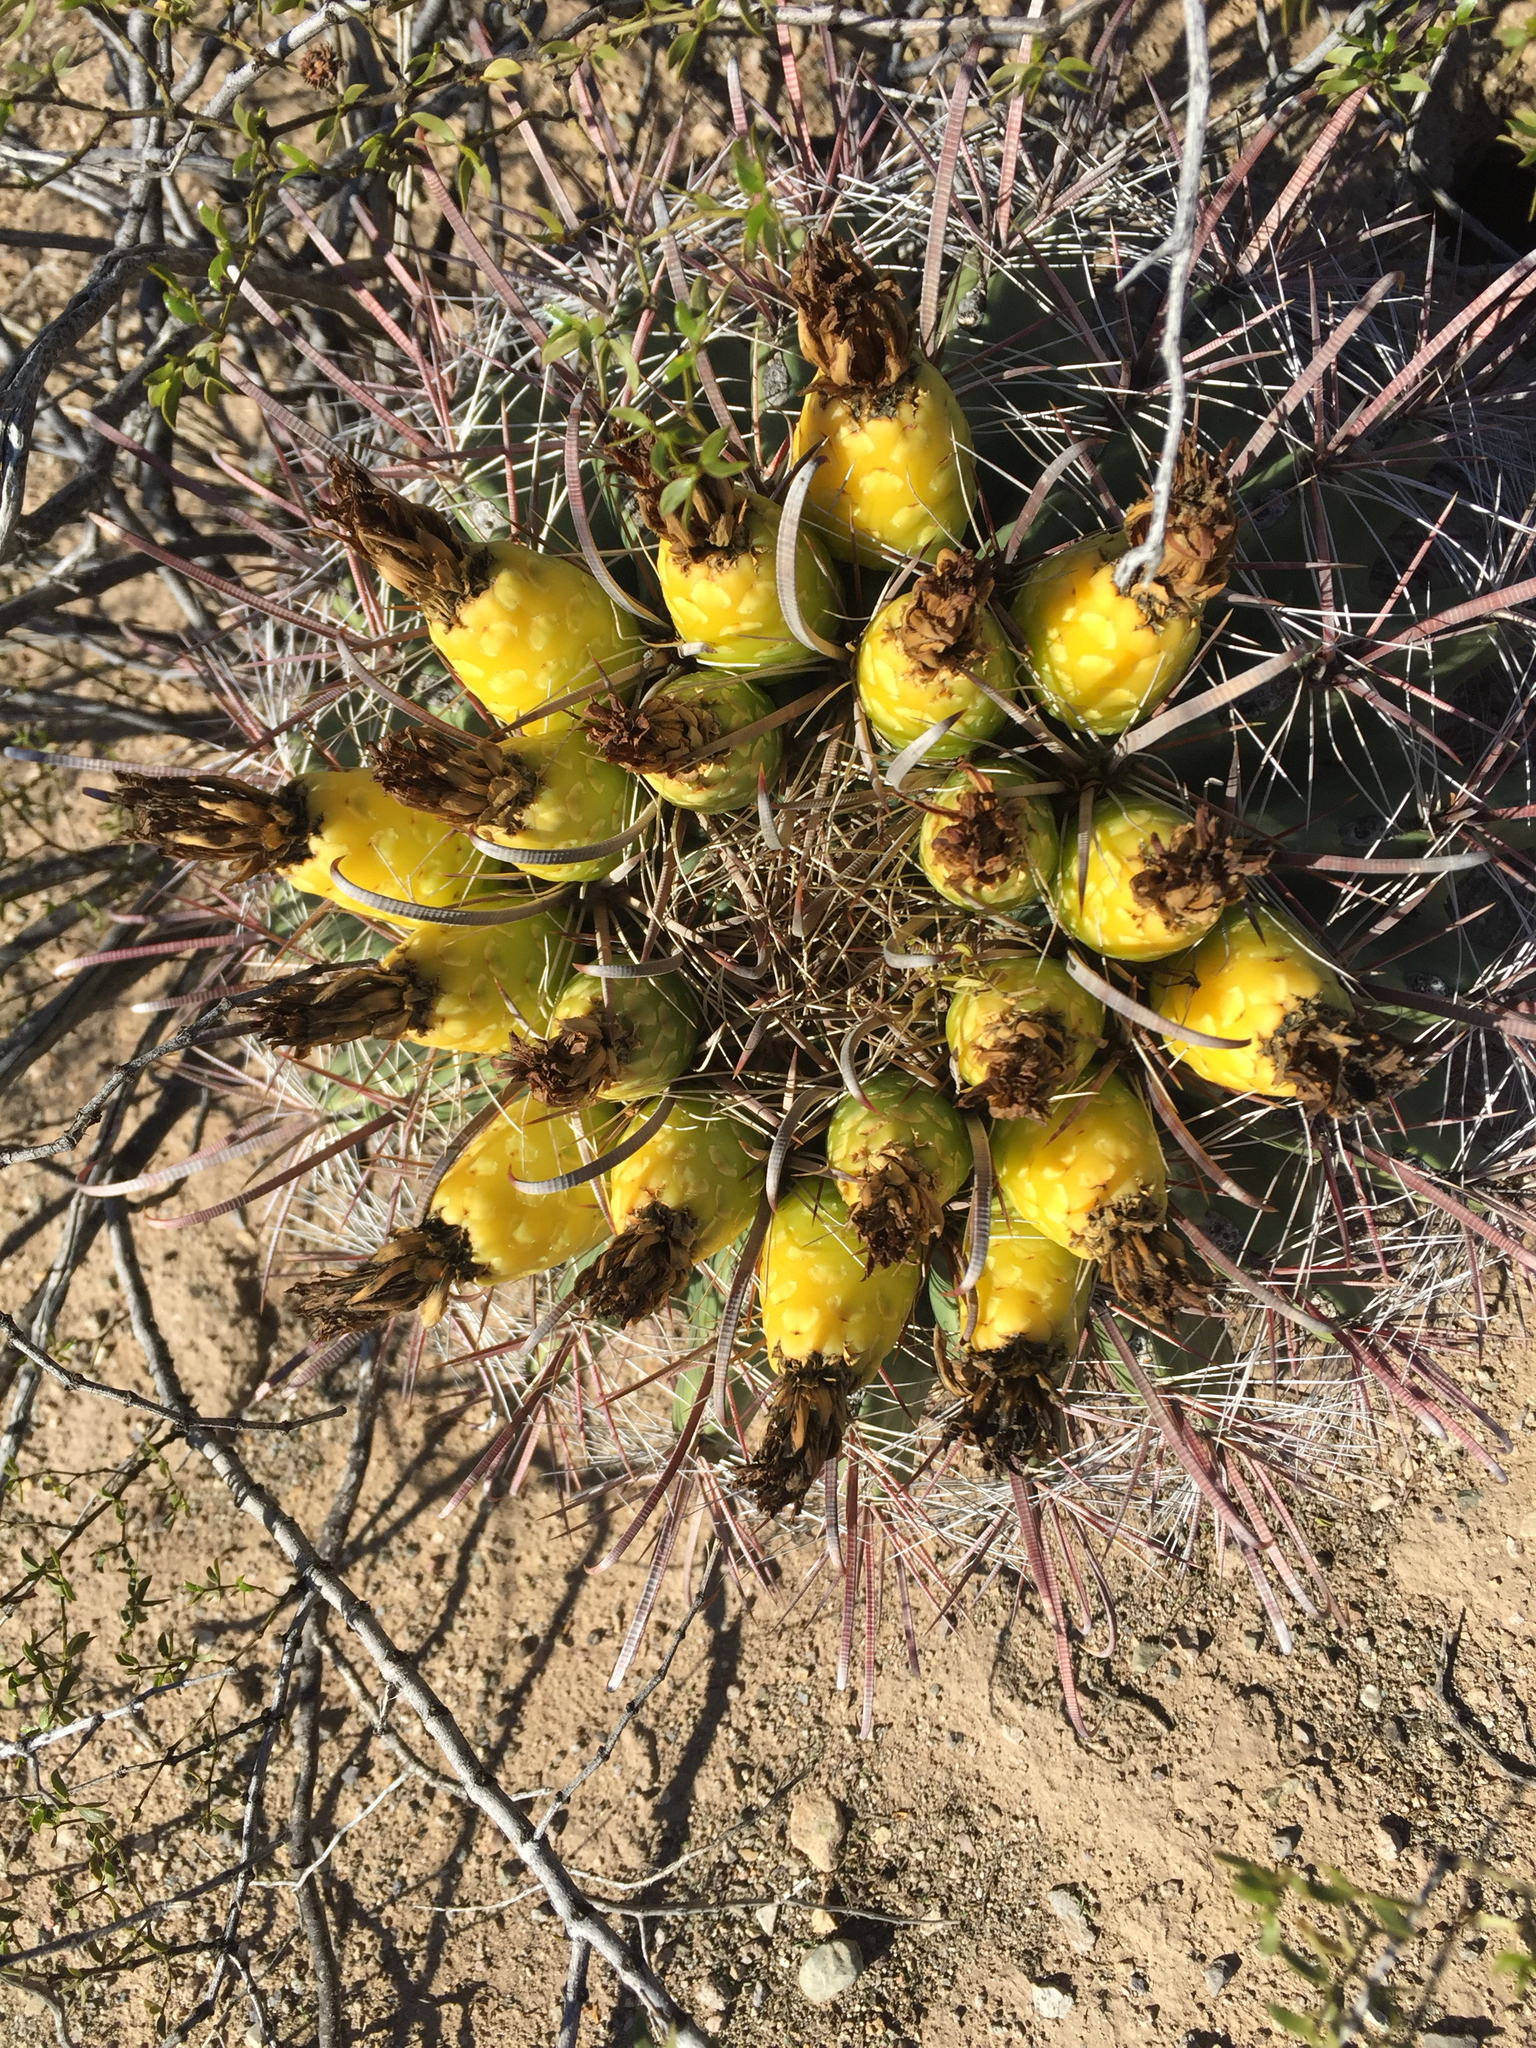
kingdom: Plantae
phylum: Tracheophyta
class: Magnoliopsida
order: Caryophyllales
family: Cactaceae
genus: Ferocactus
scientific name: Ferocactus wislizeni
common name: Candy barrel cactus
